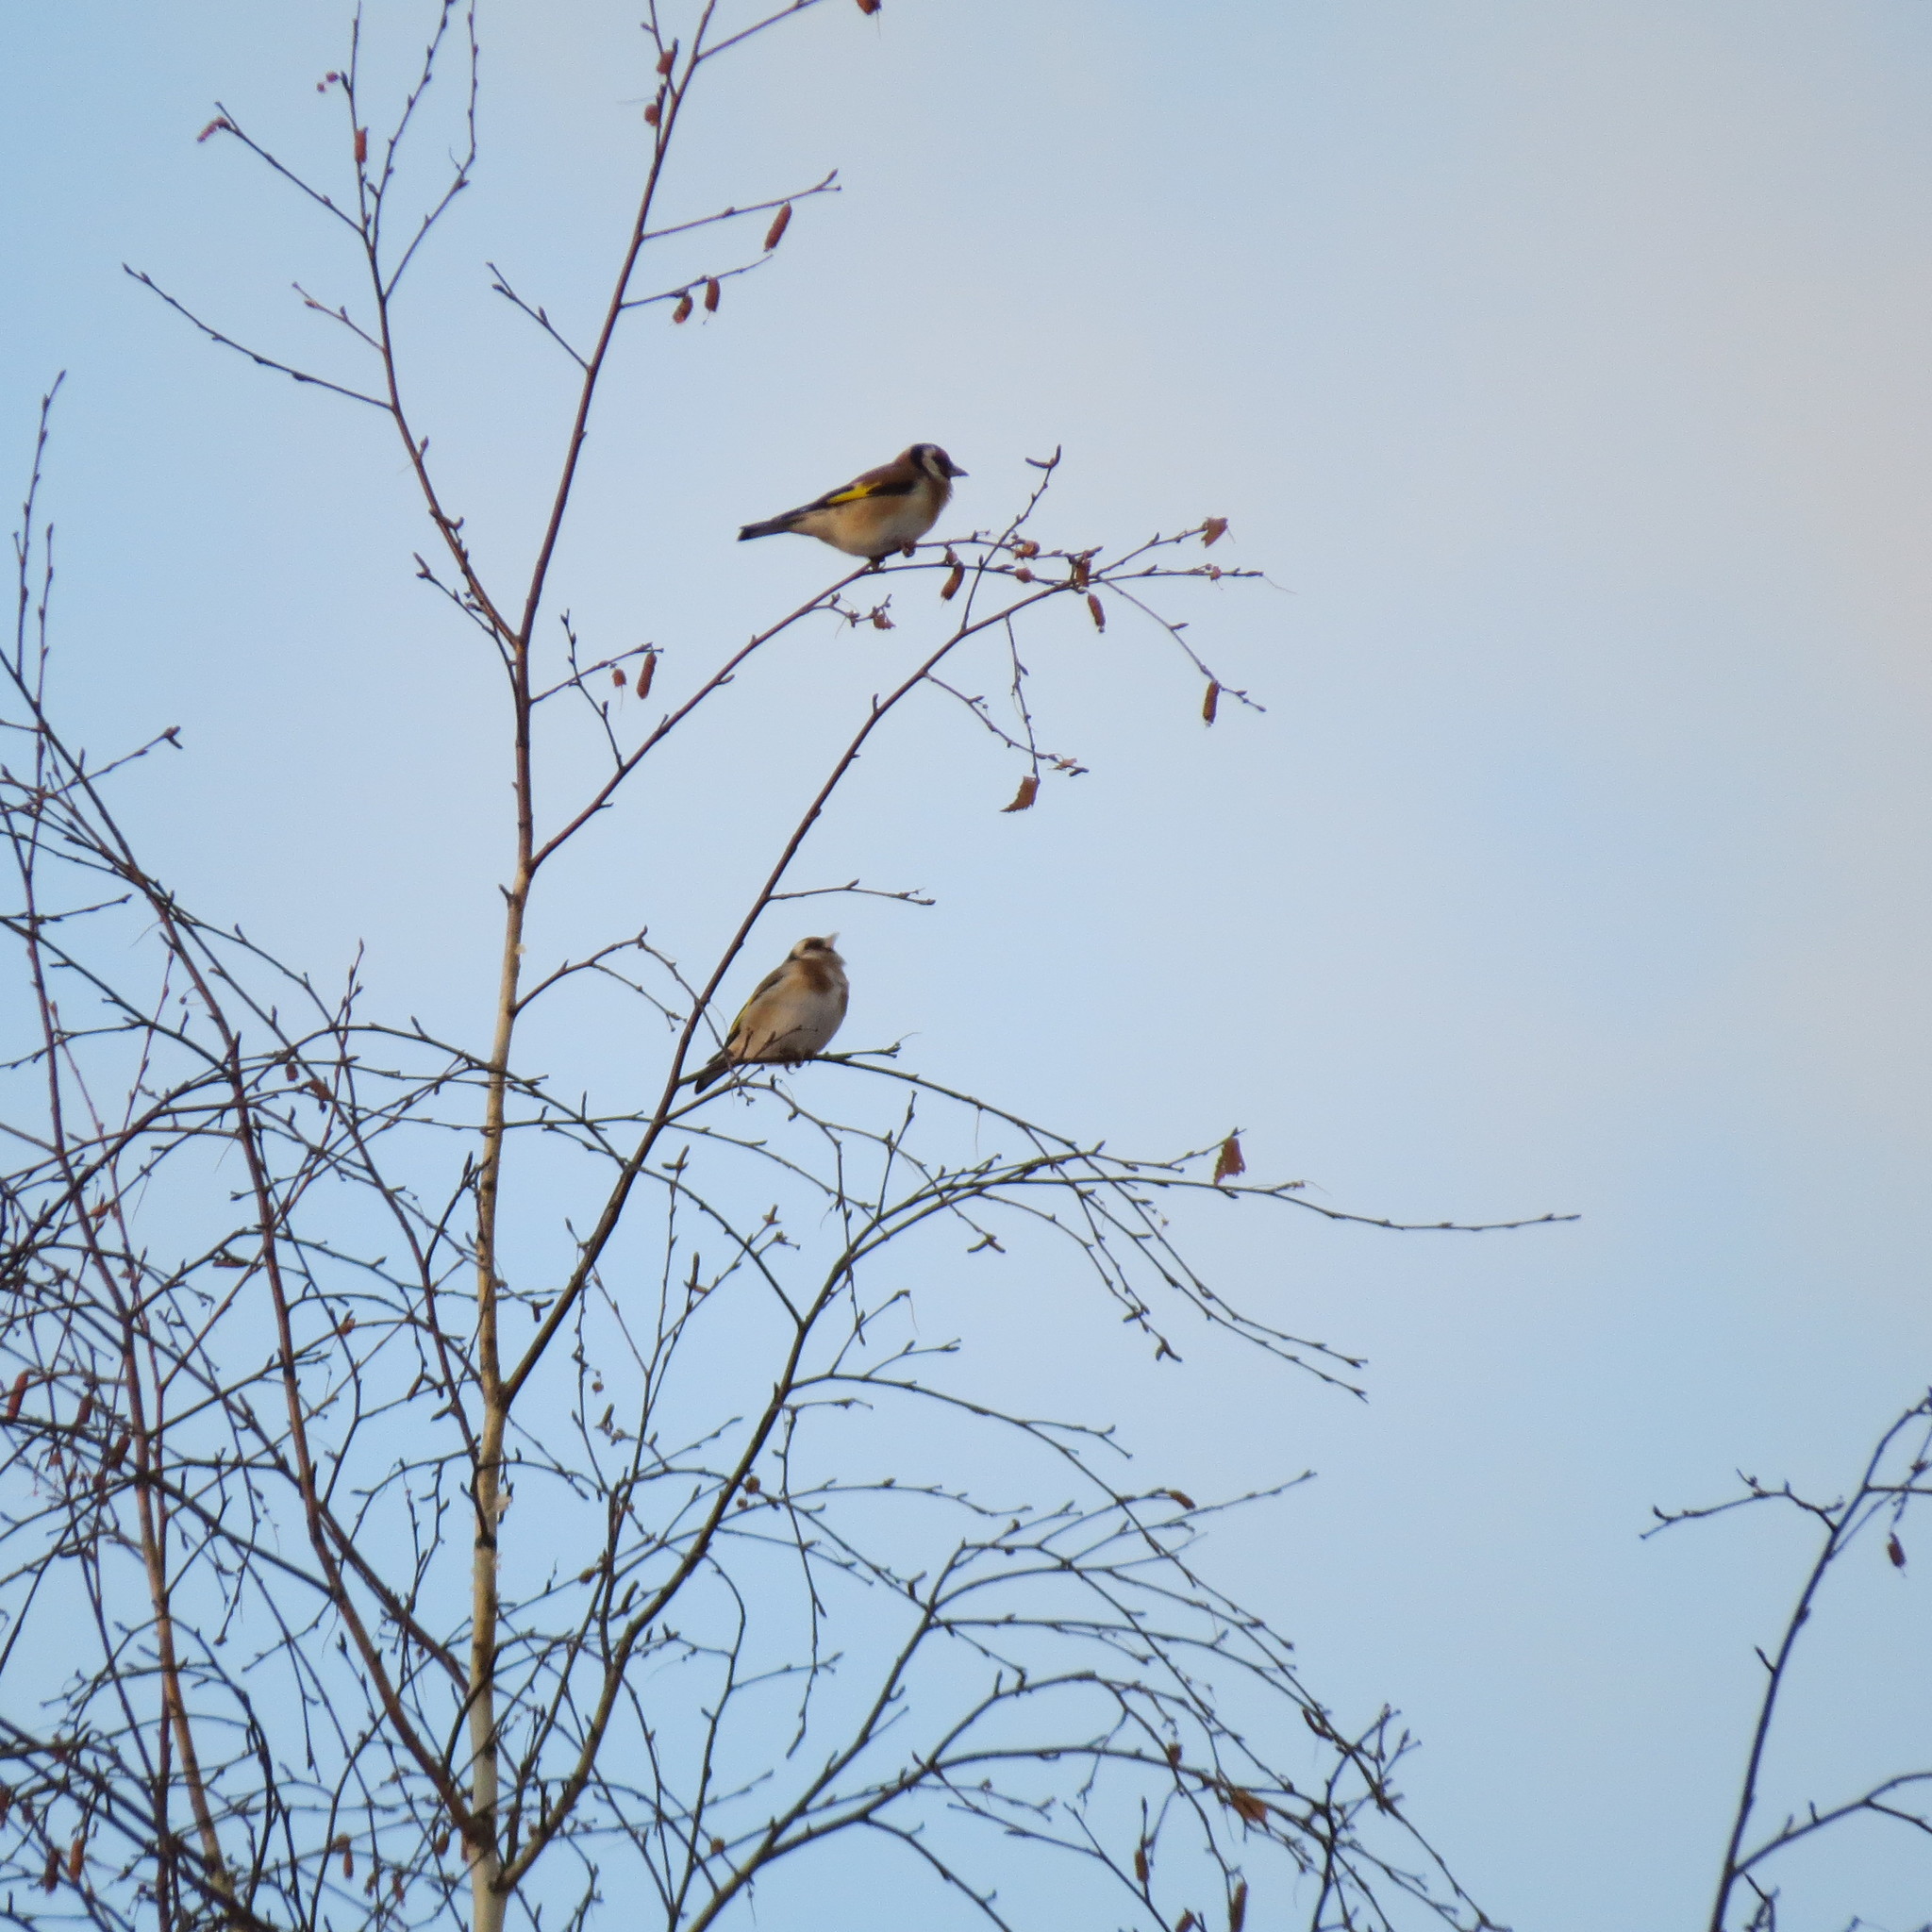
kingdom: Animalia
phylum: Chordata
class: Aves
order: Passeriformes
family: Fringillidae
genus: Carduelis
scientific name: Carduelis carduelis
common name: European goldfinch
